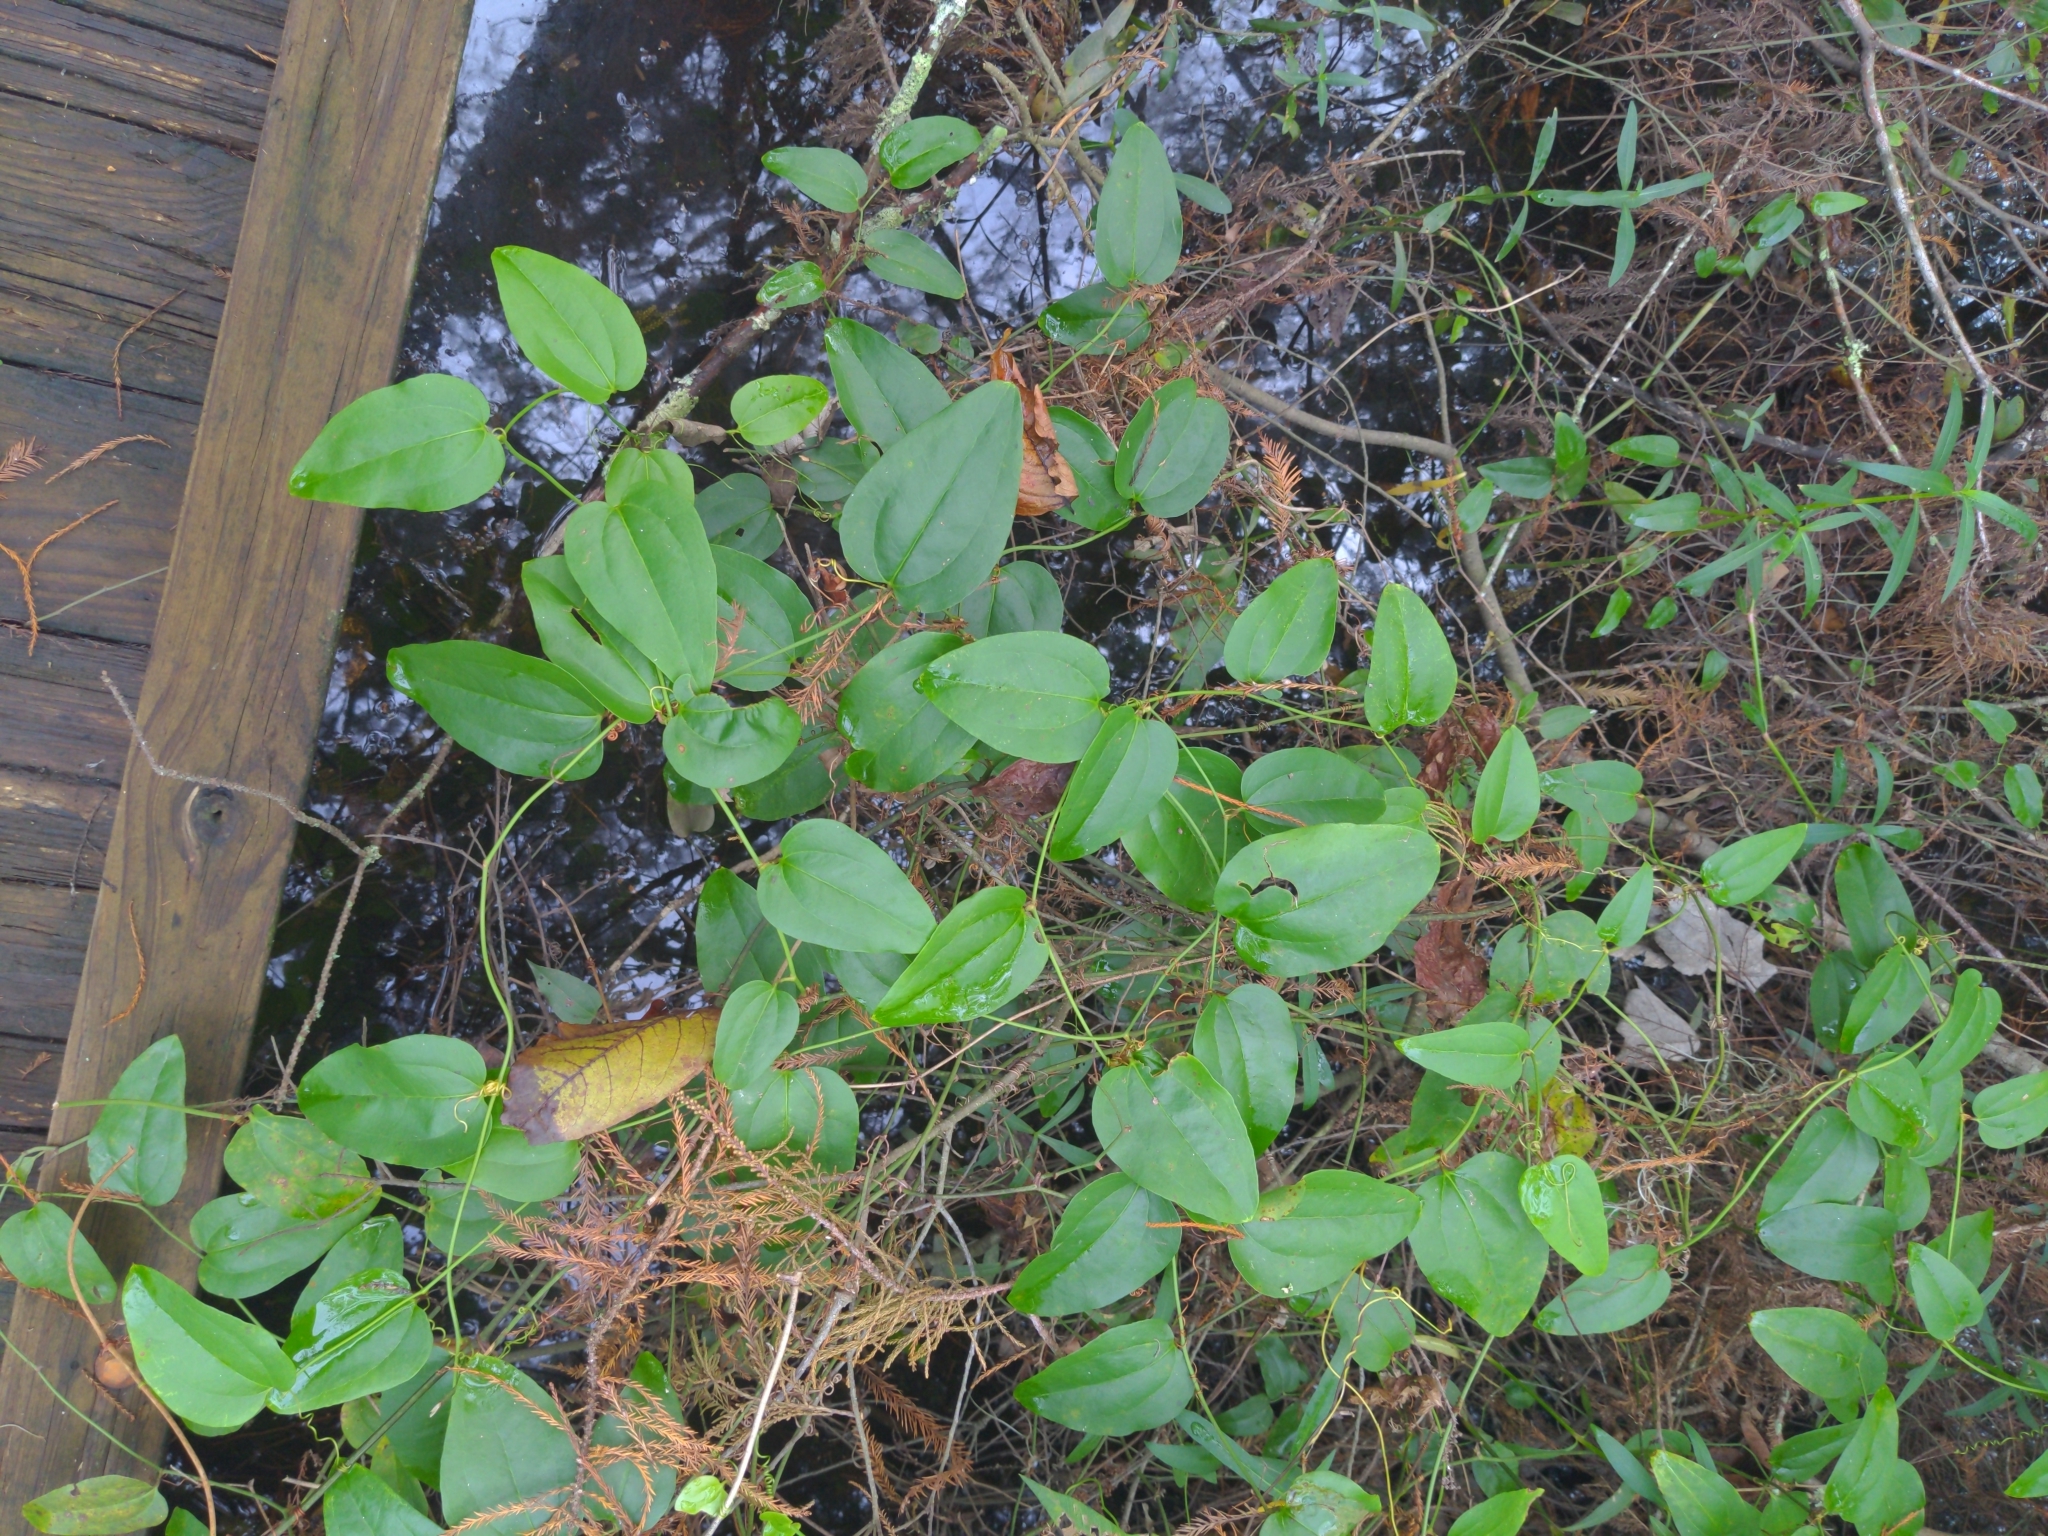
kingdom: Plantae
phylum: Tracheophyta
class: Liliopsida
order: Liliales
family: Smilacaceae
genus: Smilax
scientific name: Smilax walteri
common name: Coral greenbrier
